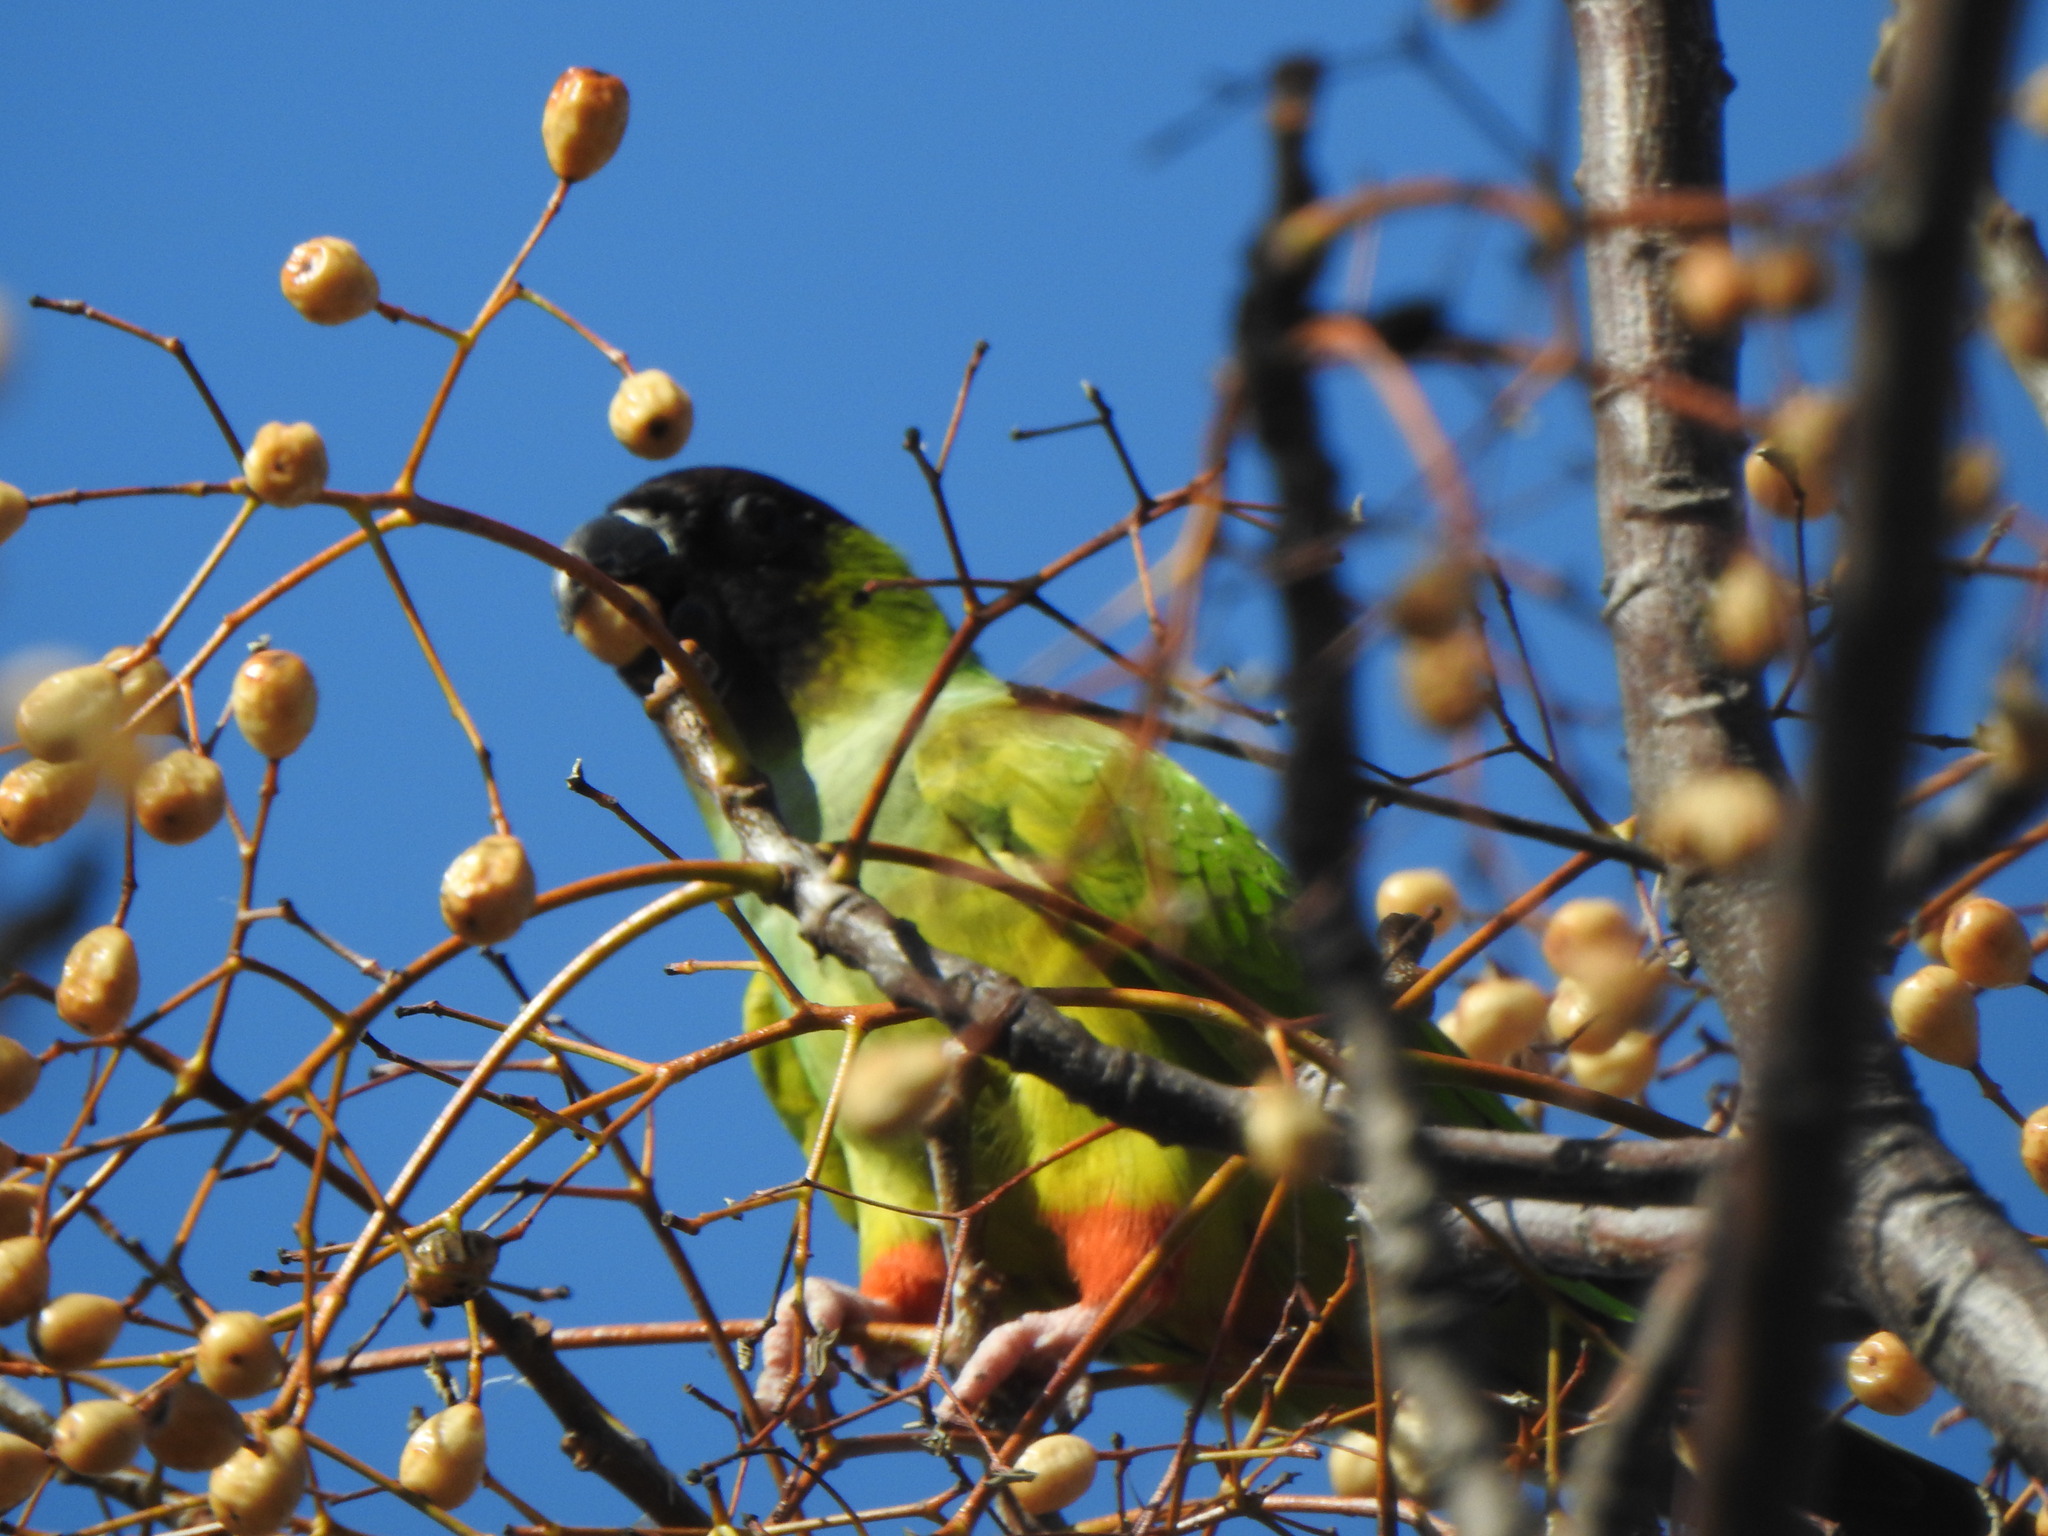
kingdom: Animalia
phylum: Chordata
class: Aves
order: Psittaciformes
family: Psittacidae
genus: Nandayus
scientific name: Nandayus nenday
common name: Nanday parakeet
